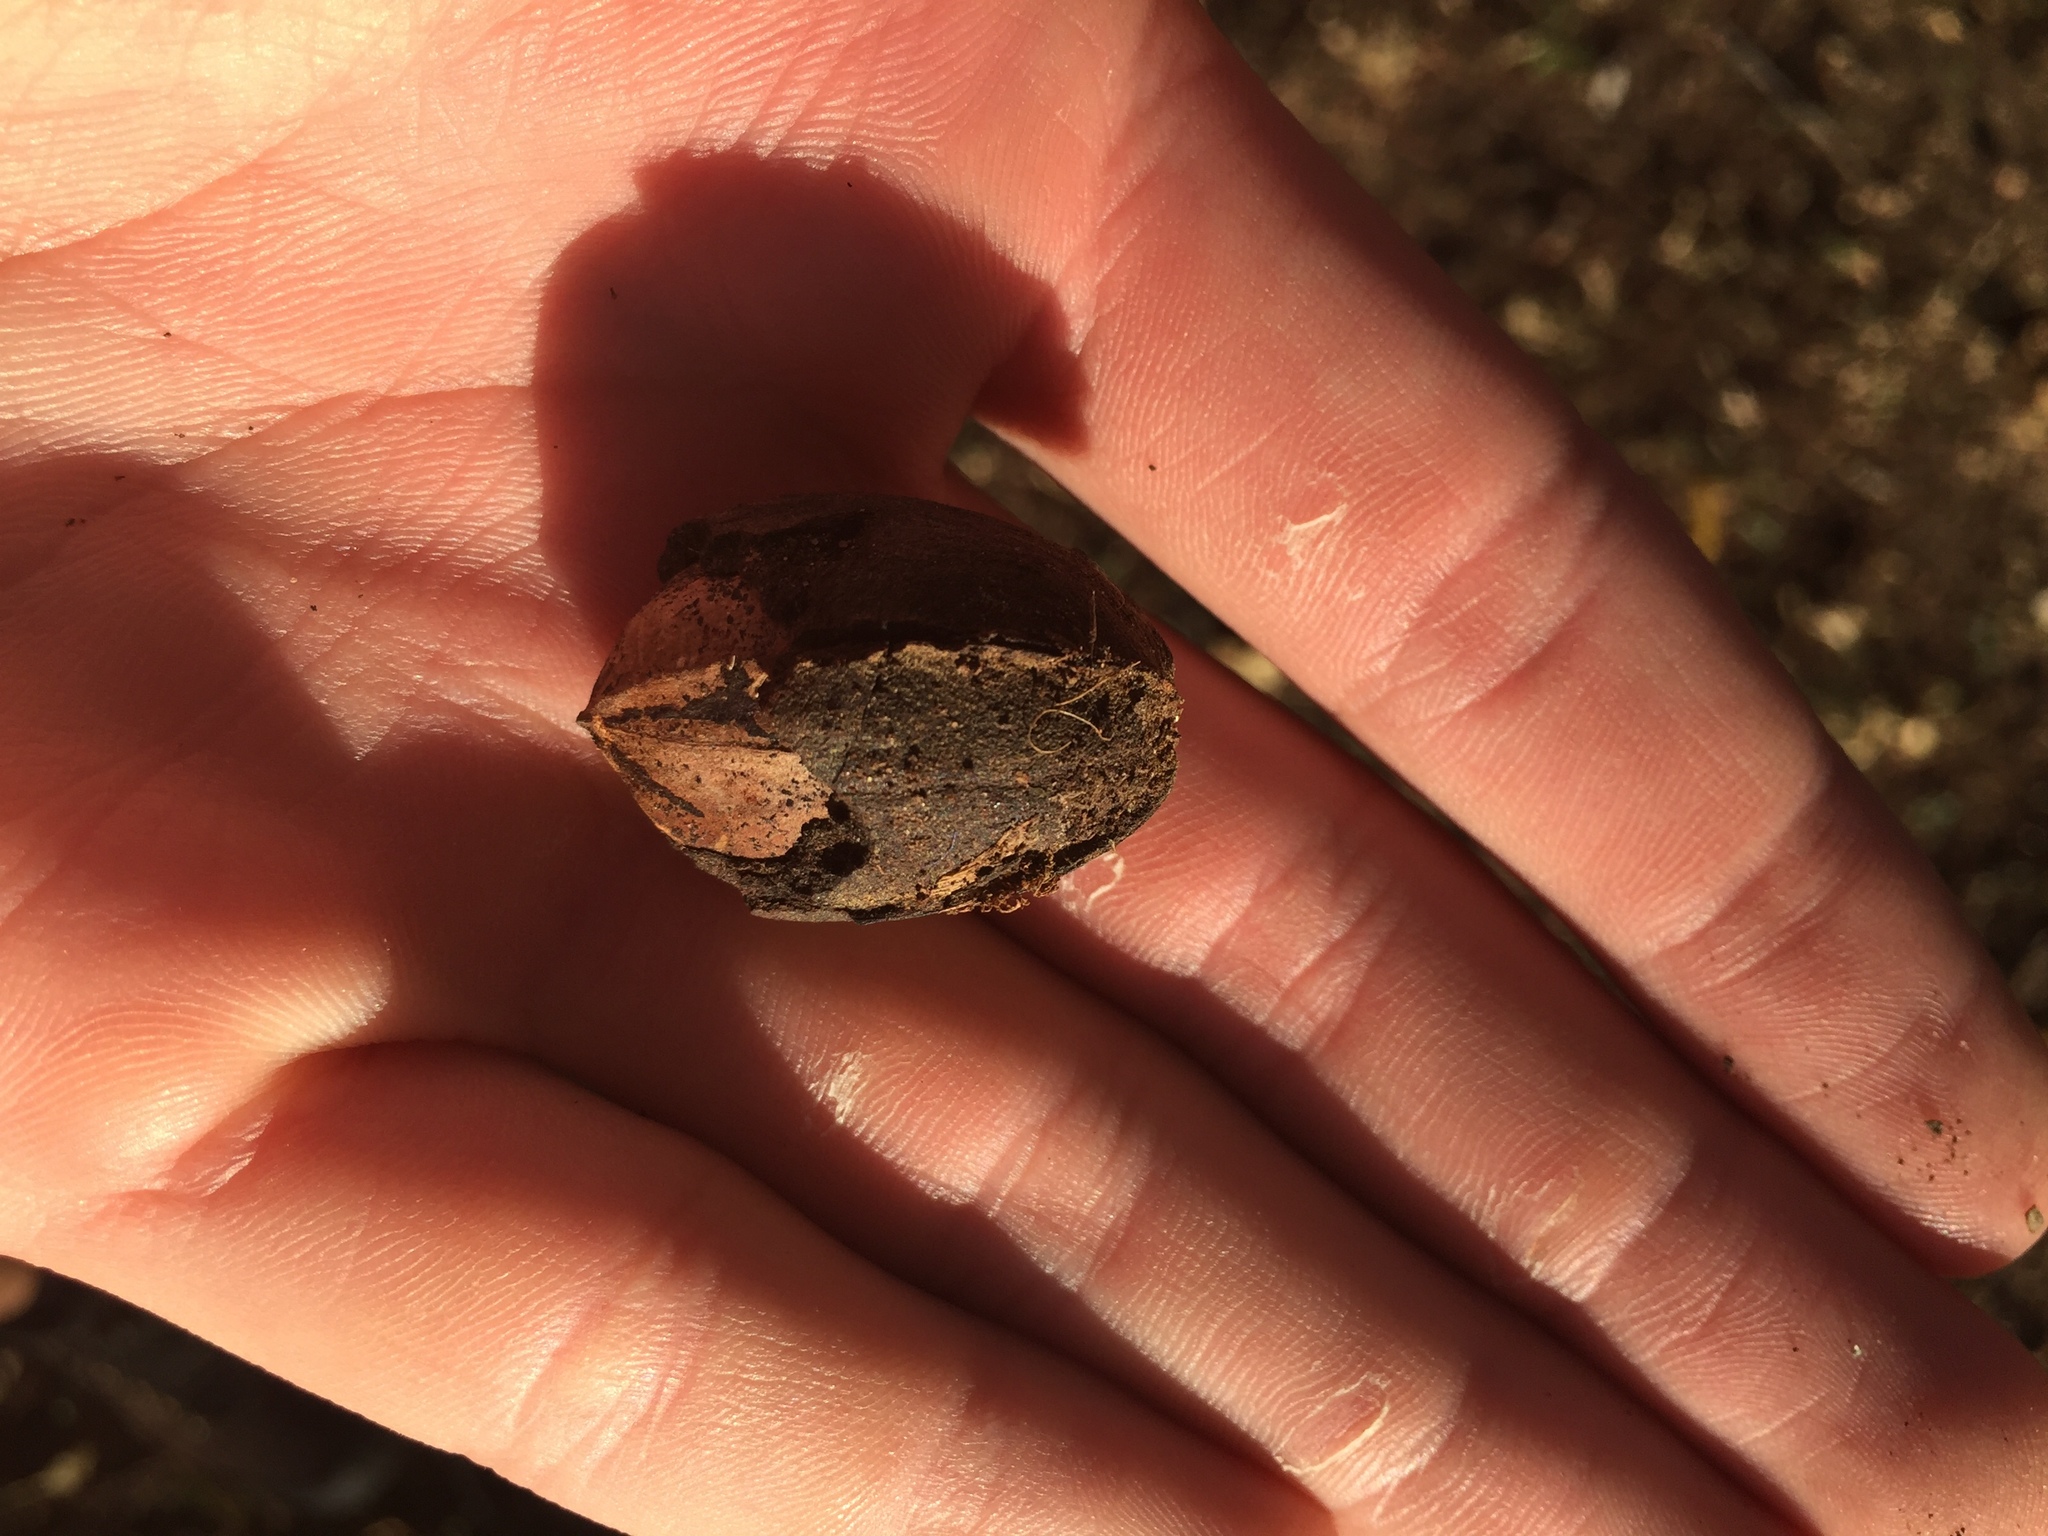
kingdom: Plantae
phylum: Tracheophyta
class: Magnoliopsida
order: Fagales
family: Juglandaceae
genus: Carya
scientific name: Carya illinoinensis
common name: Pecan
